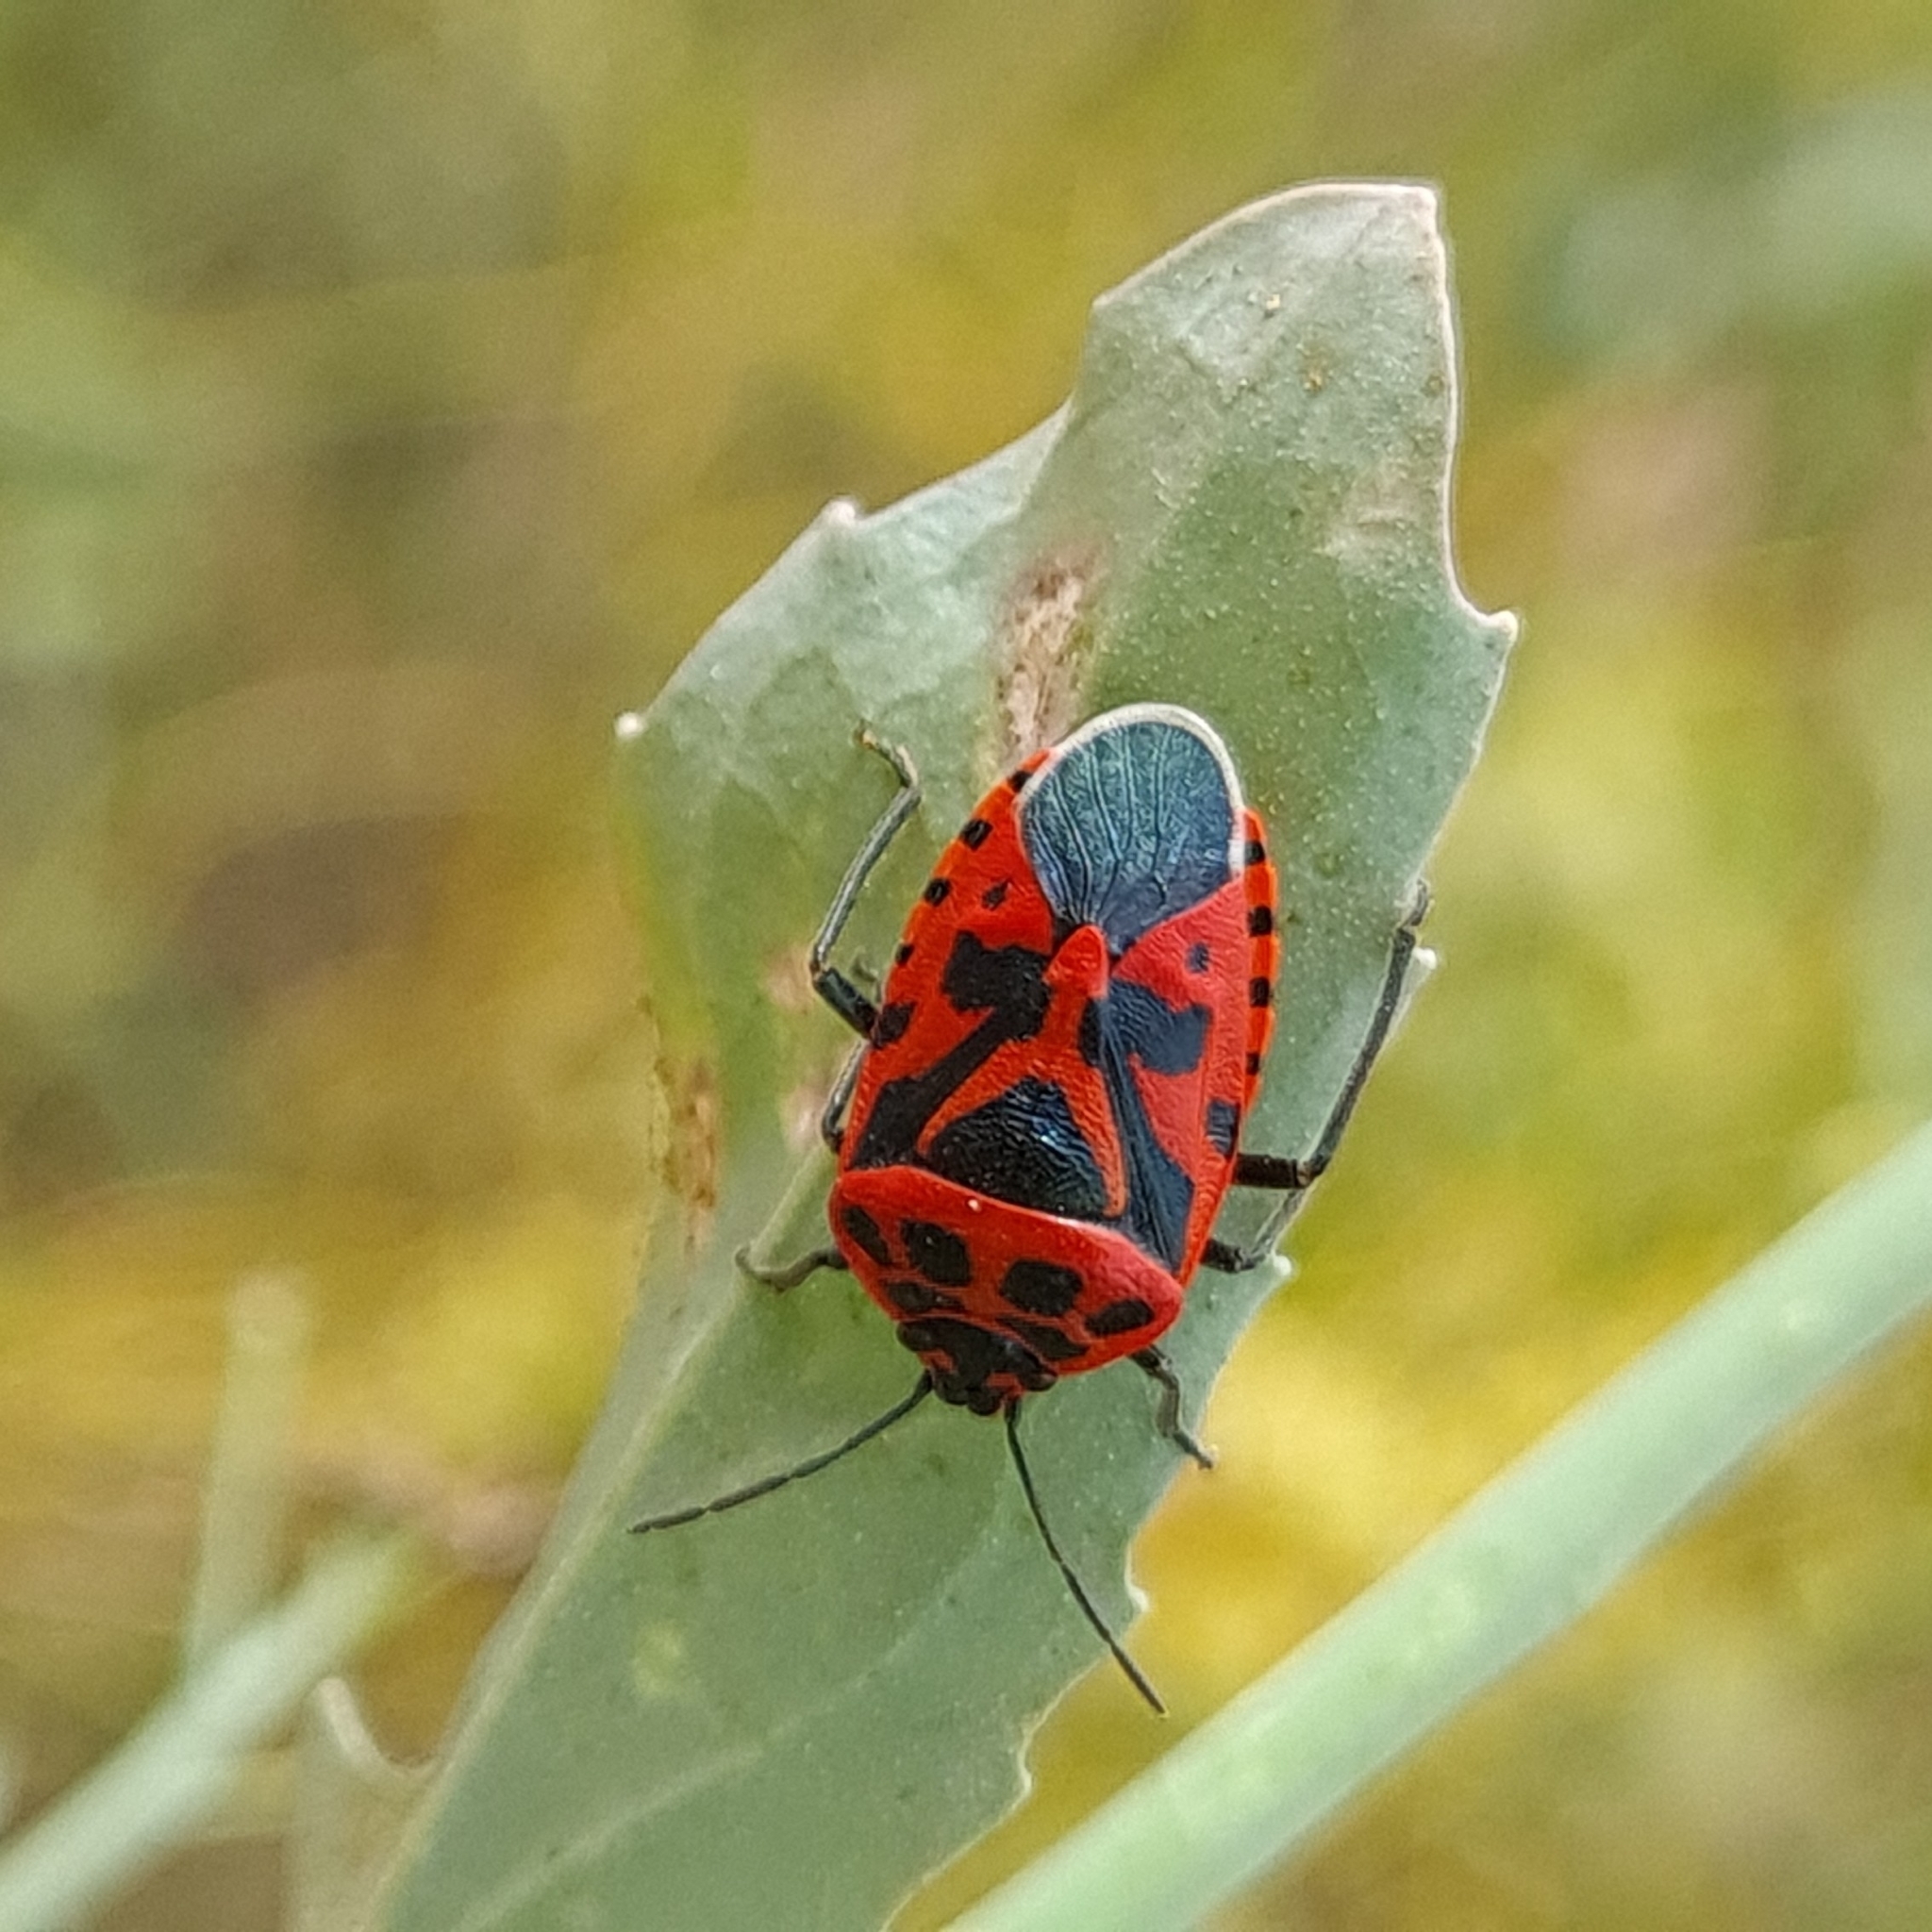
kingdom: Animalia
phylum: Arthropoda
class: Insecta
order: Hemiptera
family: Pentatomidae
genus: Eurydema
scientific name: Eurydema ventralis
